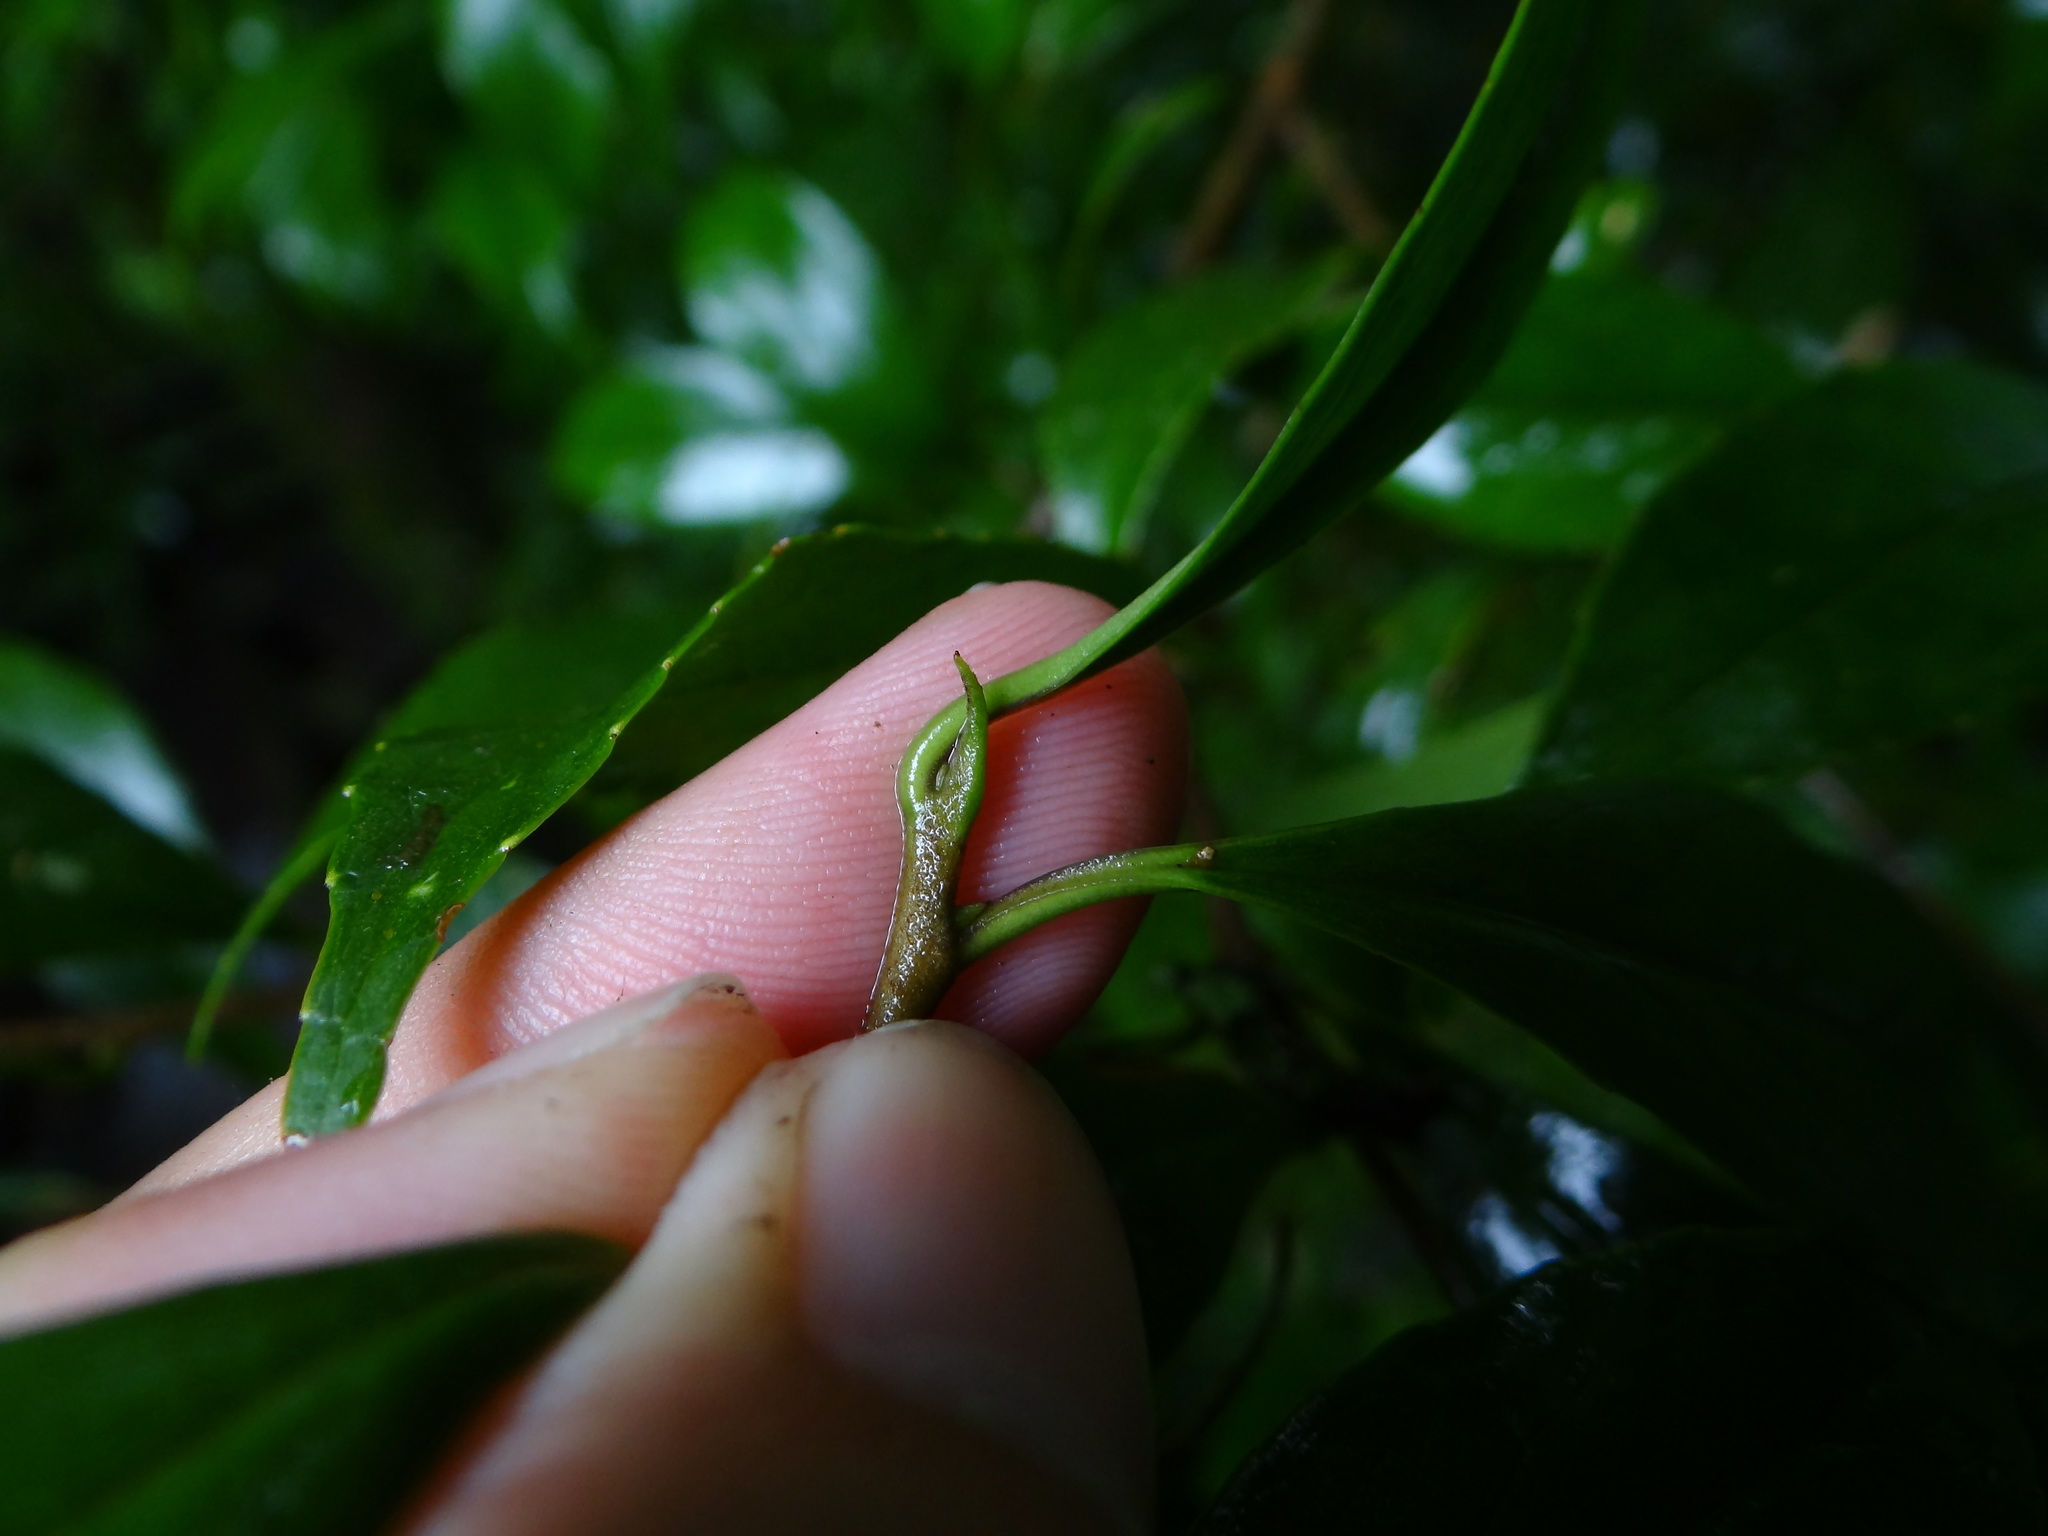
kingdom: Plantae
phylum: Tracheophyta
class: Magnoliopsida
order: Ericales
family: Symplocaceae
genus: Symplocos
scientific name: Symplocos sumuntia
